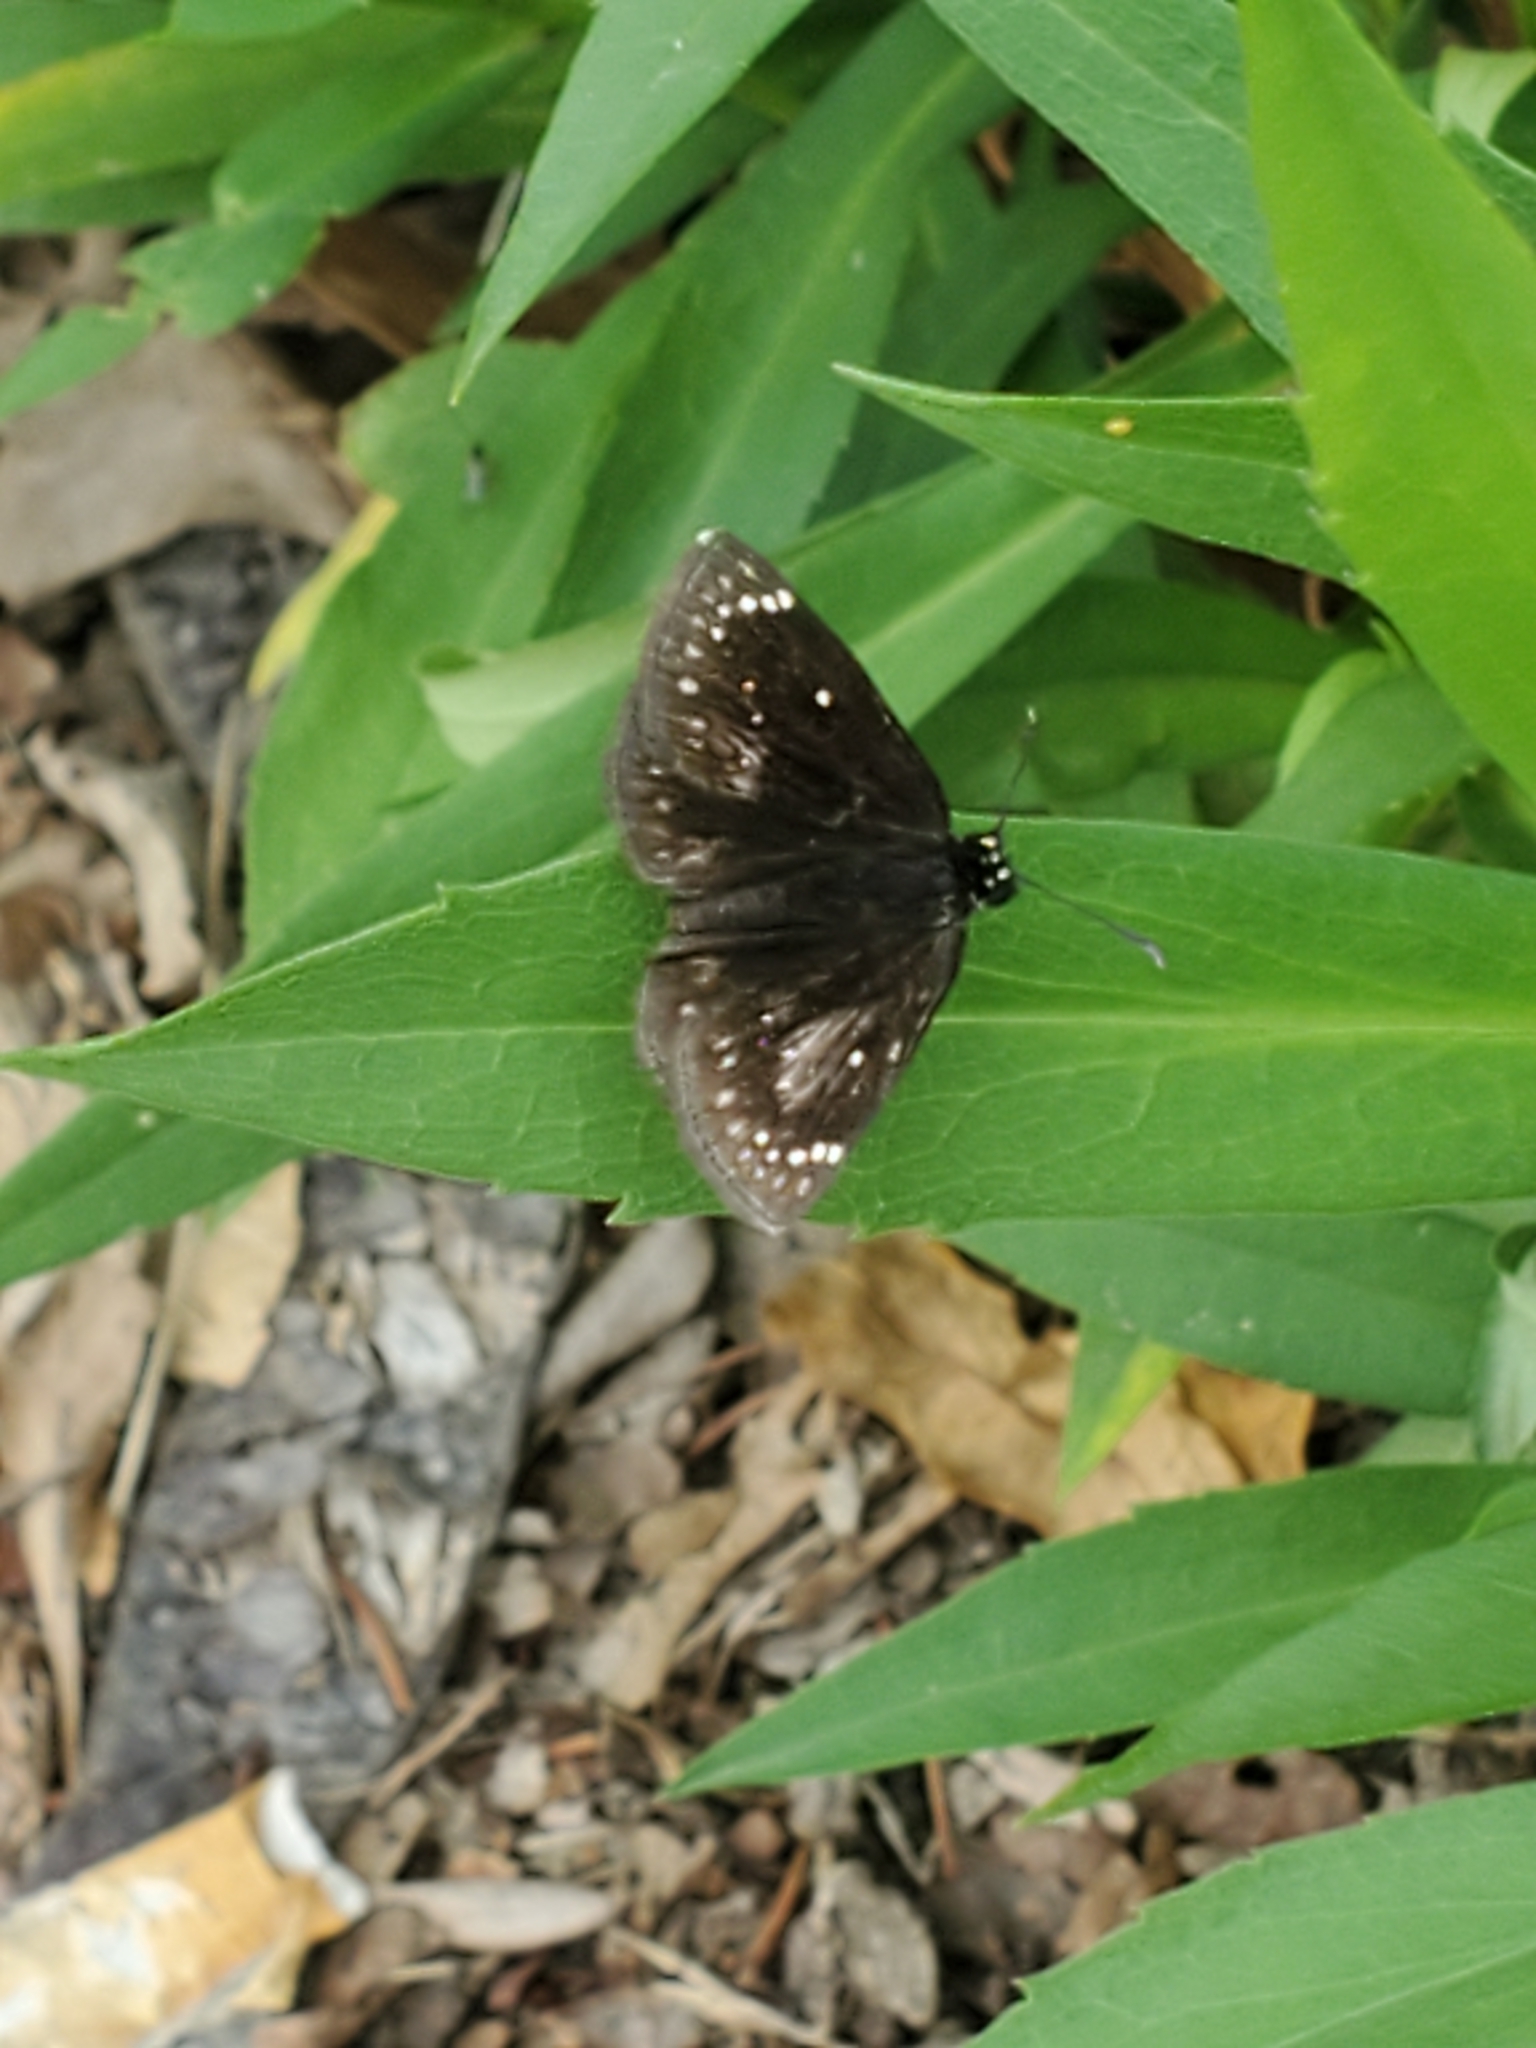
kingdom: Animalia
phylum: Arthropoda
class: Insecta
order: Lepidoptera
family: Hesperiidae
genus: Pholisora
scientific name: Pholisora catullus
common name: Common sootywing
